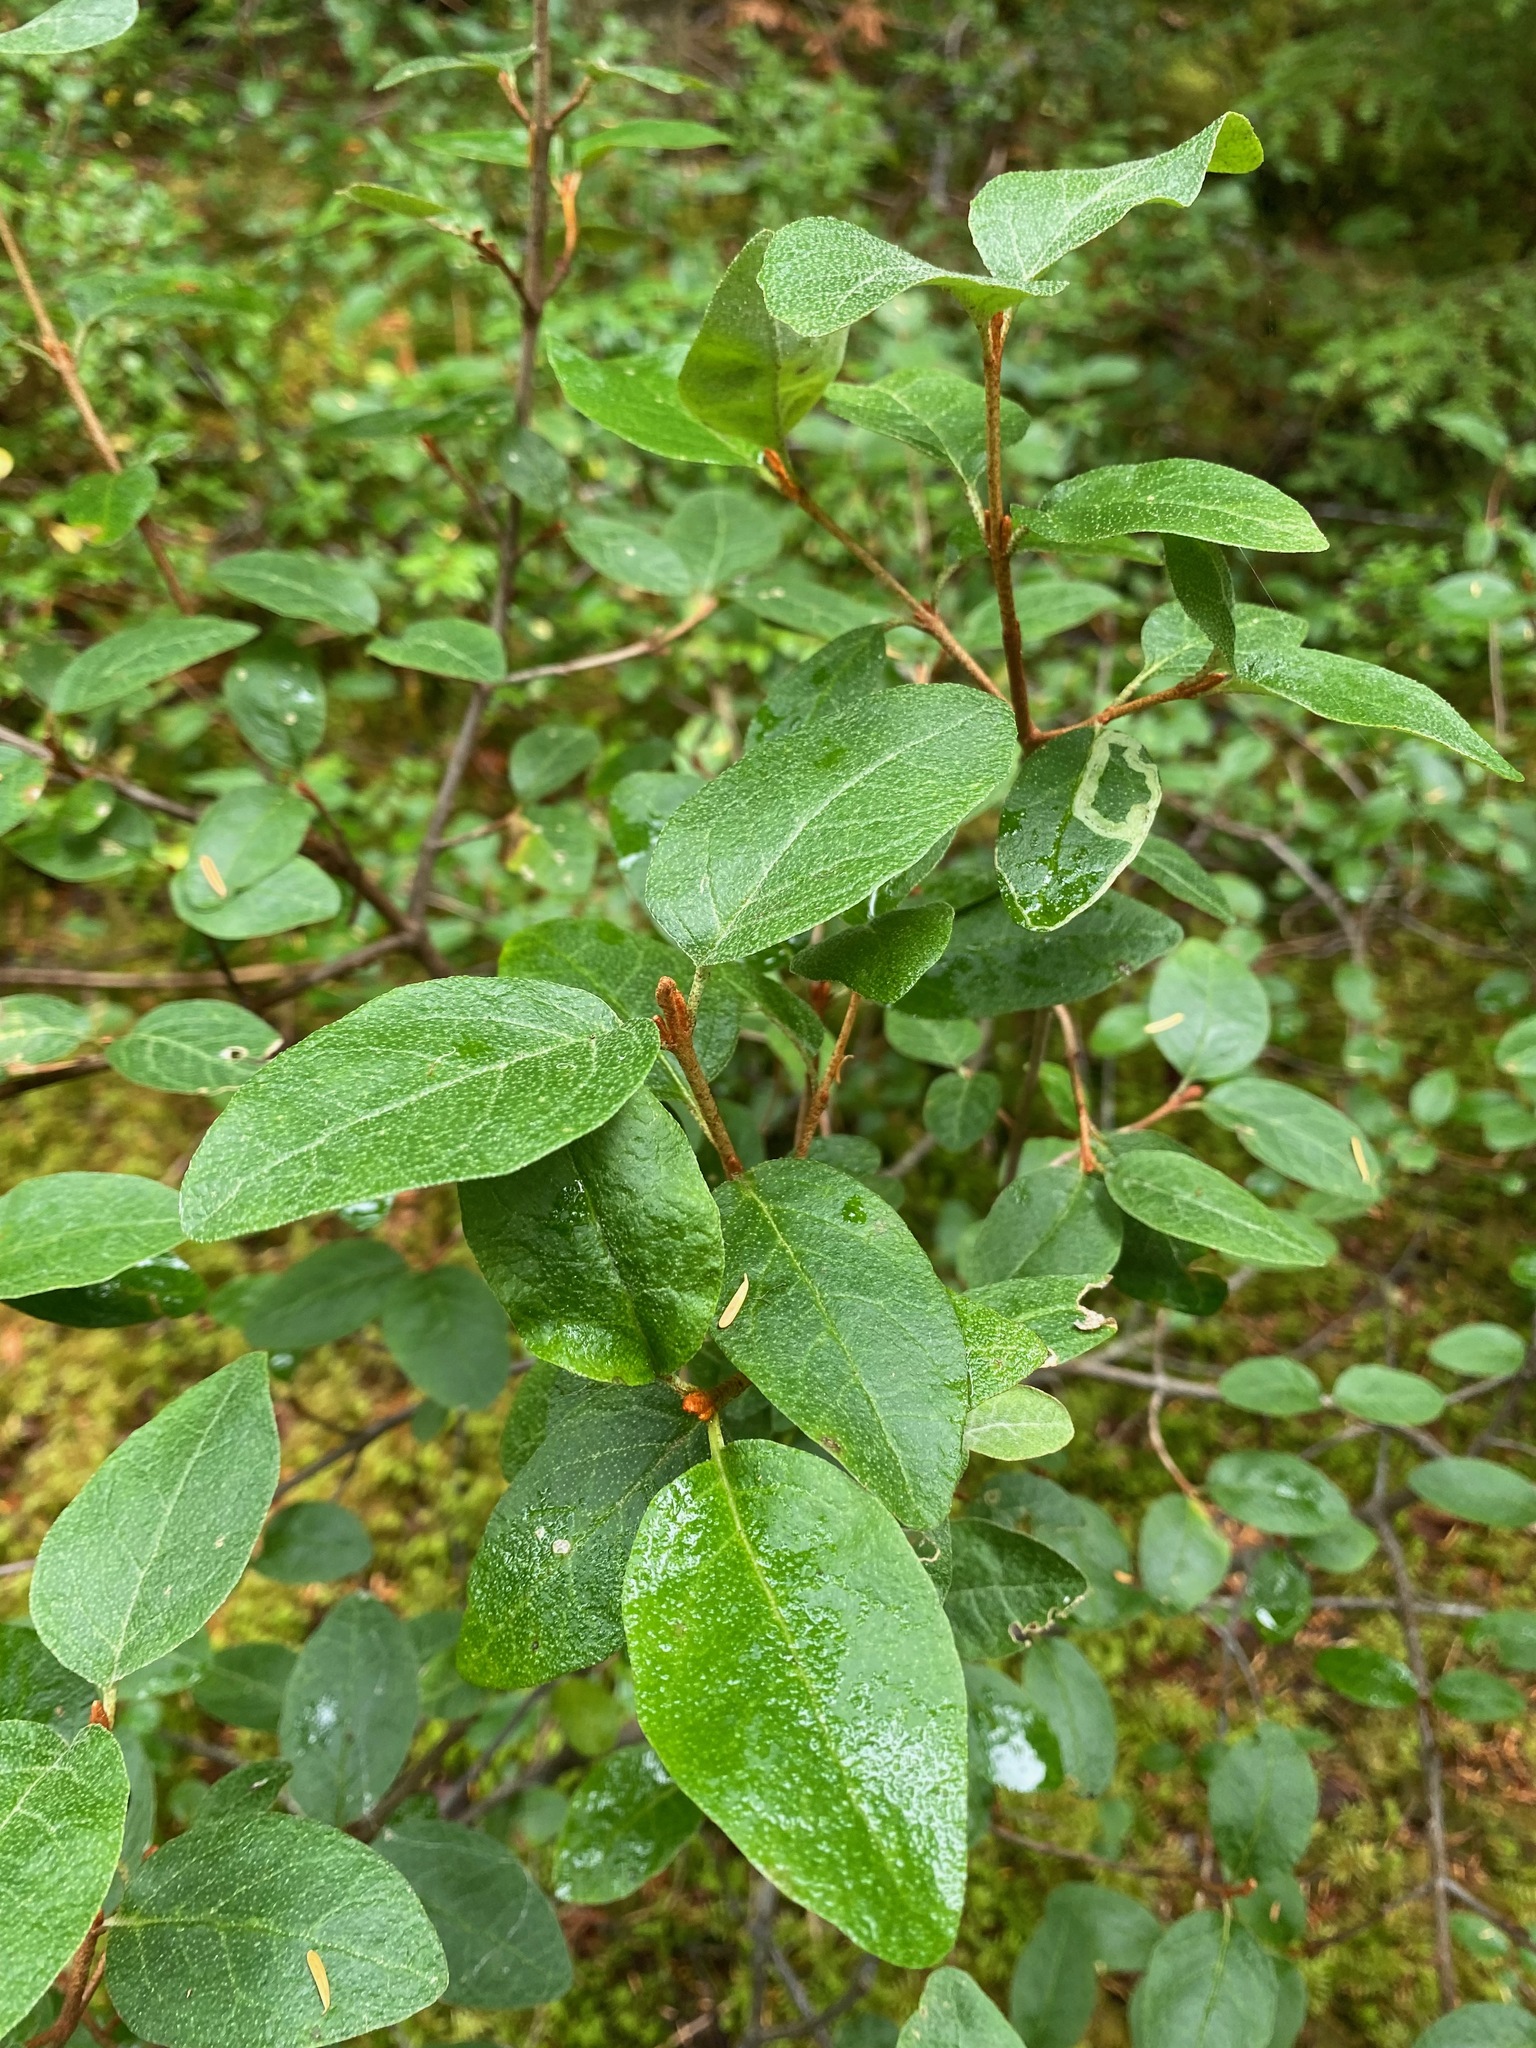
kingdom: Plantae
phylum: Tracheophyta
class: Magnoliopsida
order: Rosales
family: Elaeagnaceae
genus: Shepherdia
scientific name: Shepherdia canadensis
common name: Soapberry
